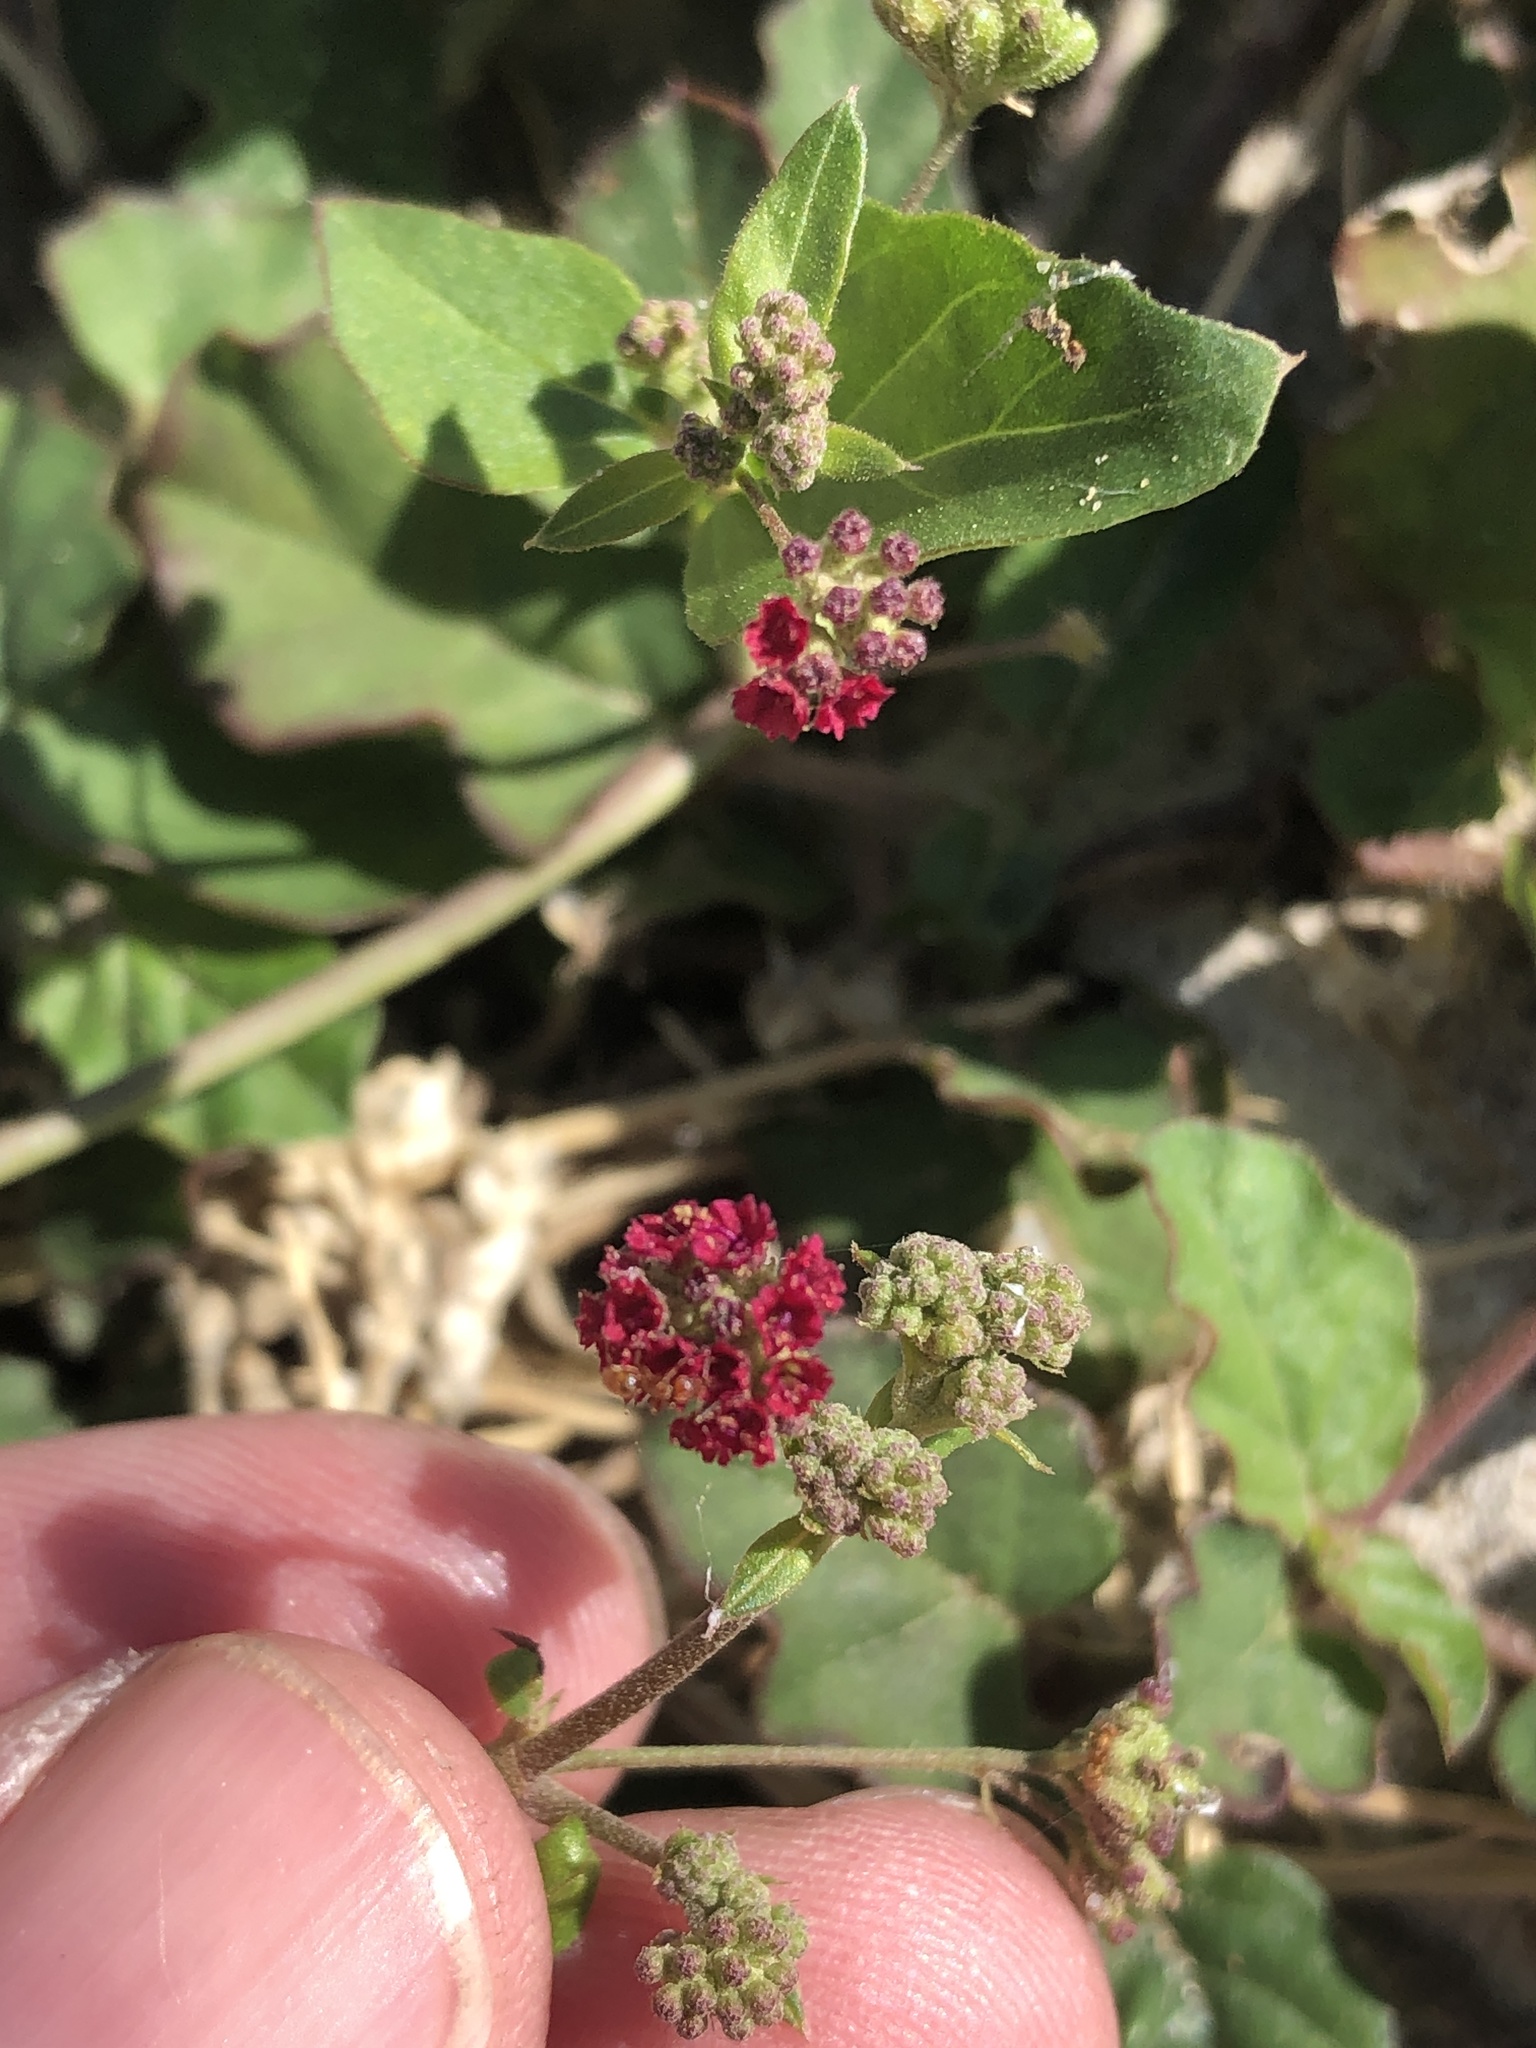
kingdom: Plantae
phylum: Tracheophyta
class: Magnoliopsida
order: Caryophyllales
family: Nyctaginaceae
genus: Boerhavia
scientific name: Boerhavia coccinea
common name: Scarlet spiderling
